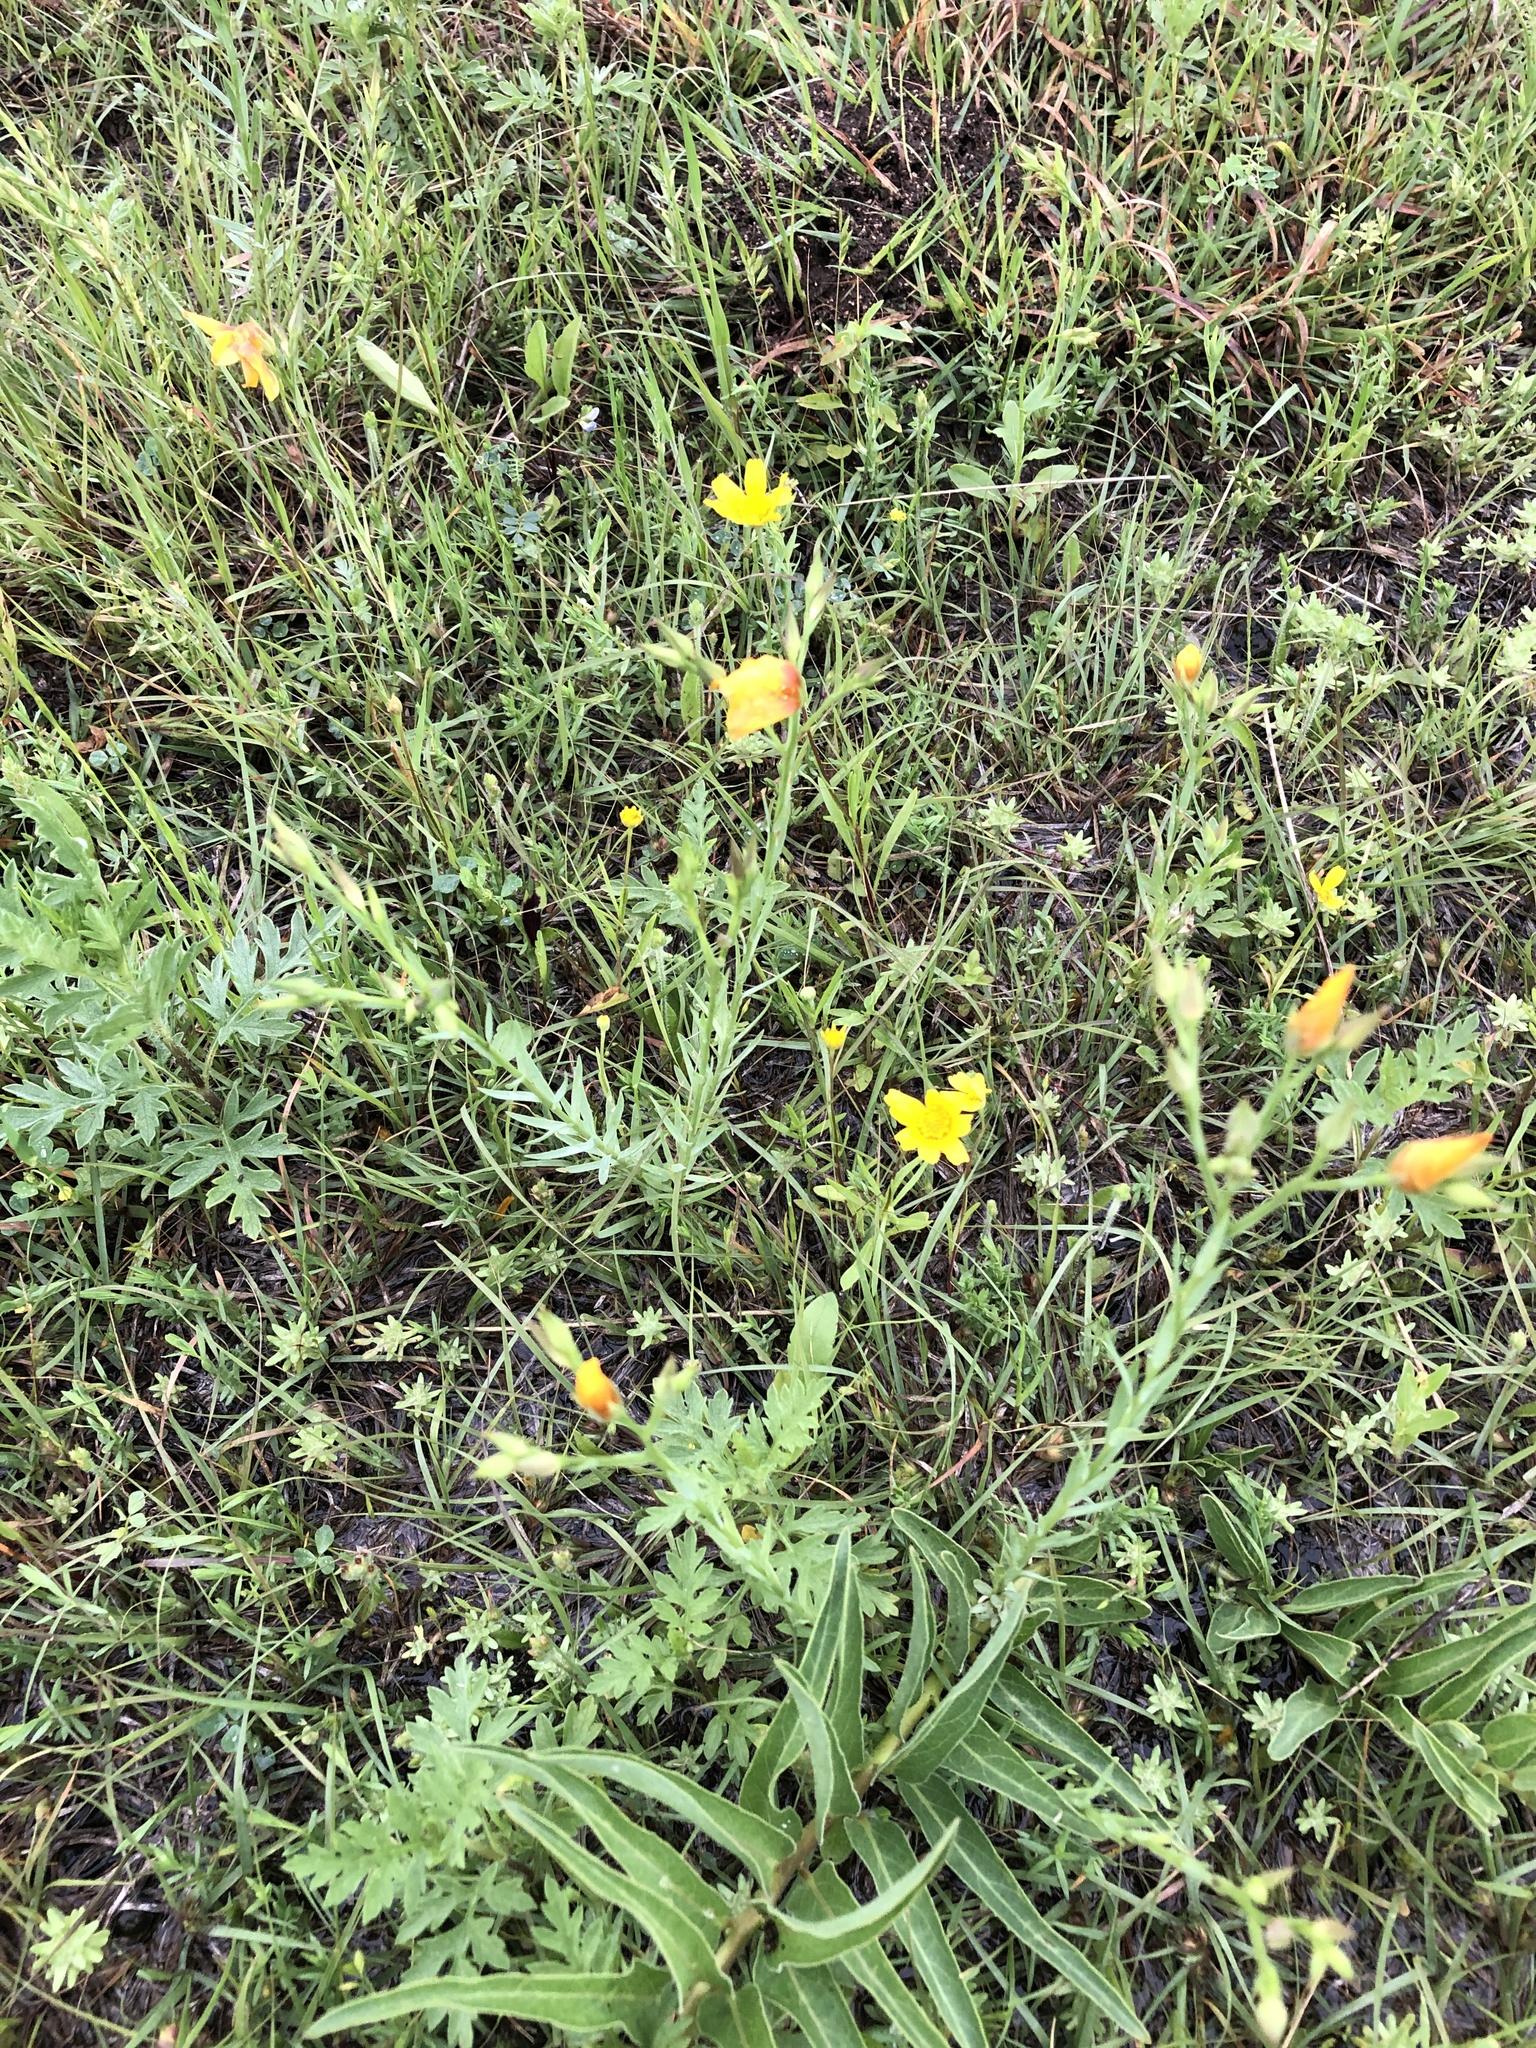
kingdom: Plantae
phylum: Tracheophyta
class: Magnoliopsida
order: Malpighiales
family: Linaceae
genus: Linum
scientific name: Linum rigidum
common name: Stiff-stem flax
